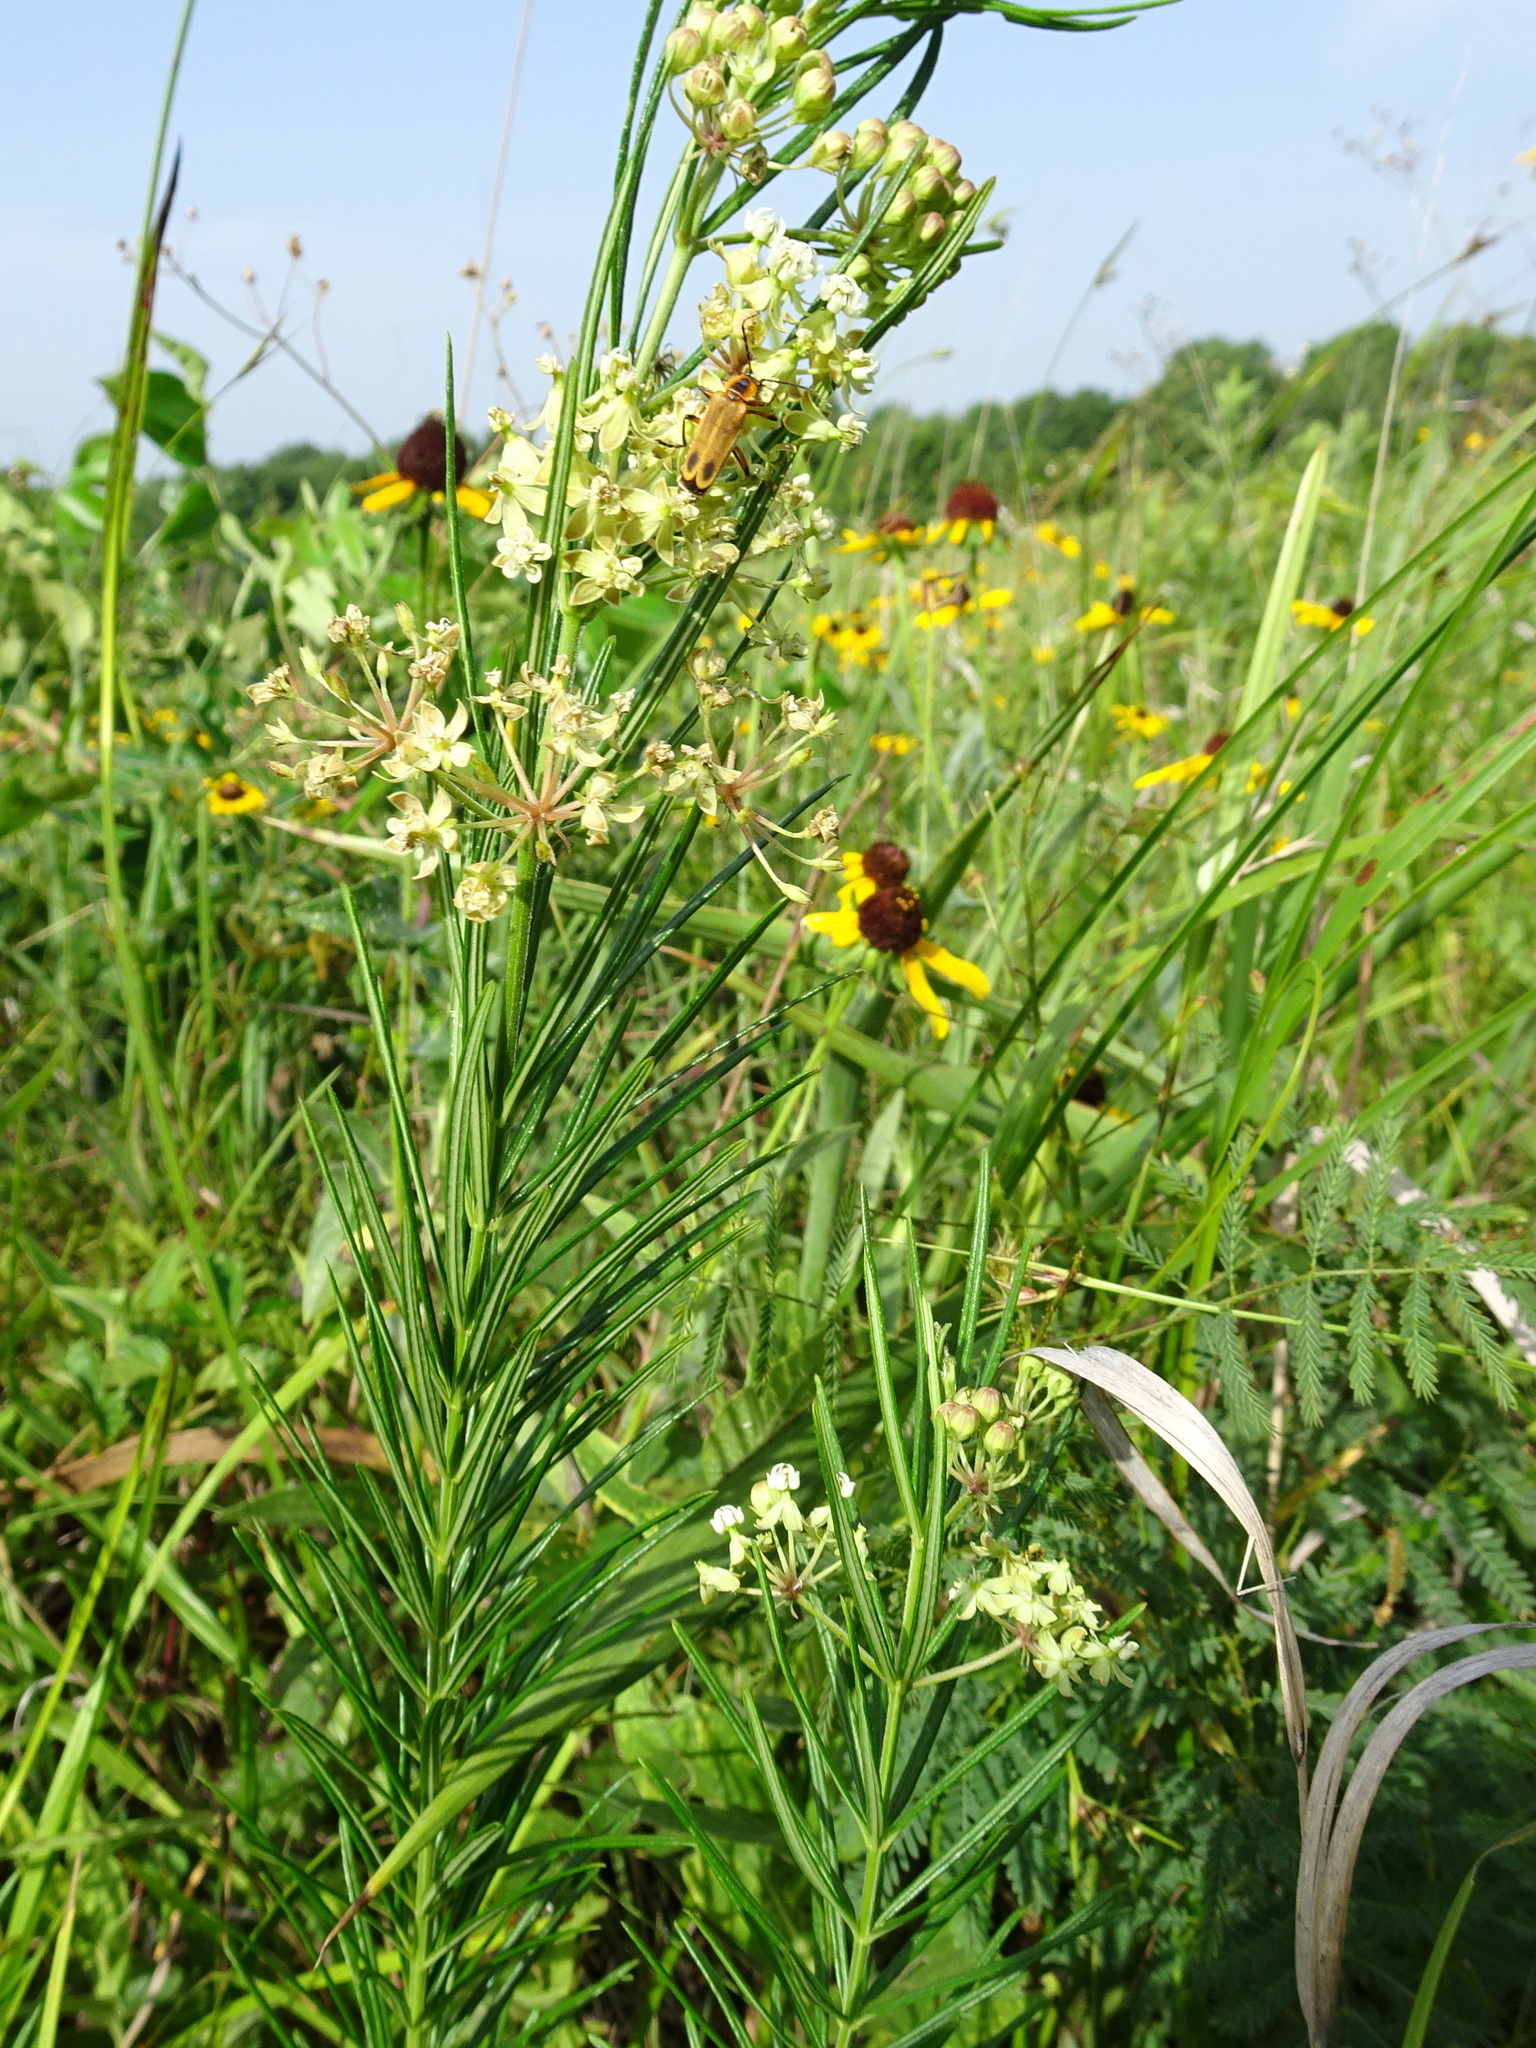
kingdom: Plantae
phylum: Tracheophyta
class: Magnoliopsida
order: Gentianales
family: Apocynaceae
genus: Asclepias
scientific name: Asclepias verticillata
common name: Eastern whorled milkweed
